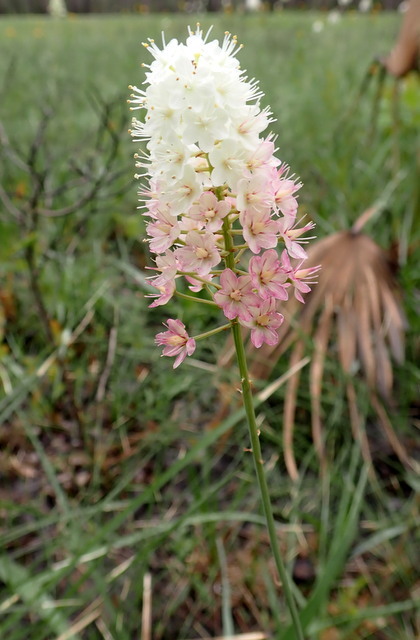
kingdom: Plantae
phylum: Tracheophyta
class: Liliopsida
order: Liliales
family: Melanthiaceae
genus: Stenanthium
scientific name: Stenanthium densum
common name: Crow-poison
